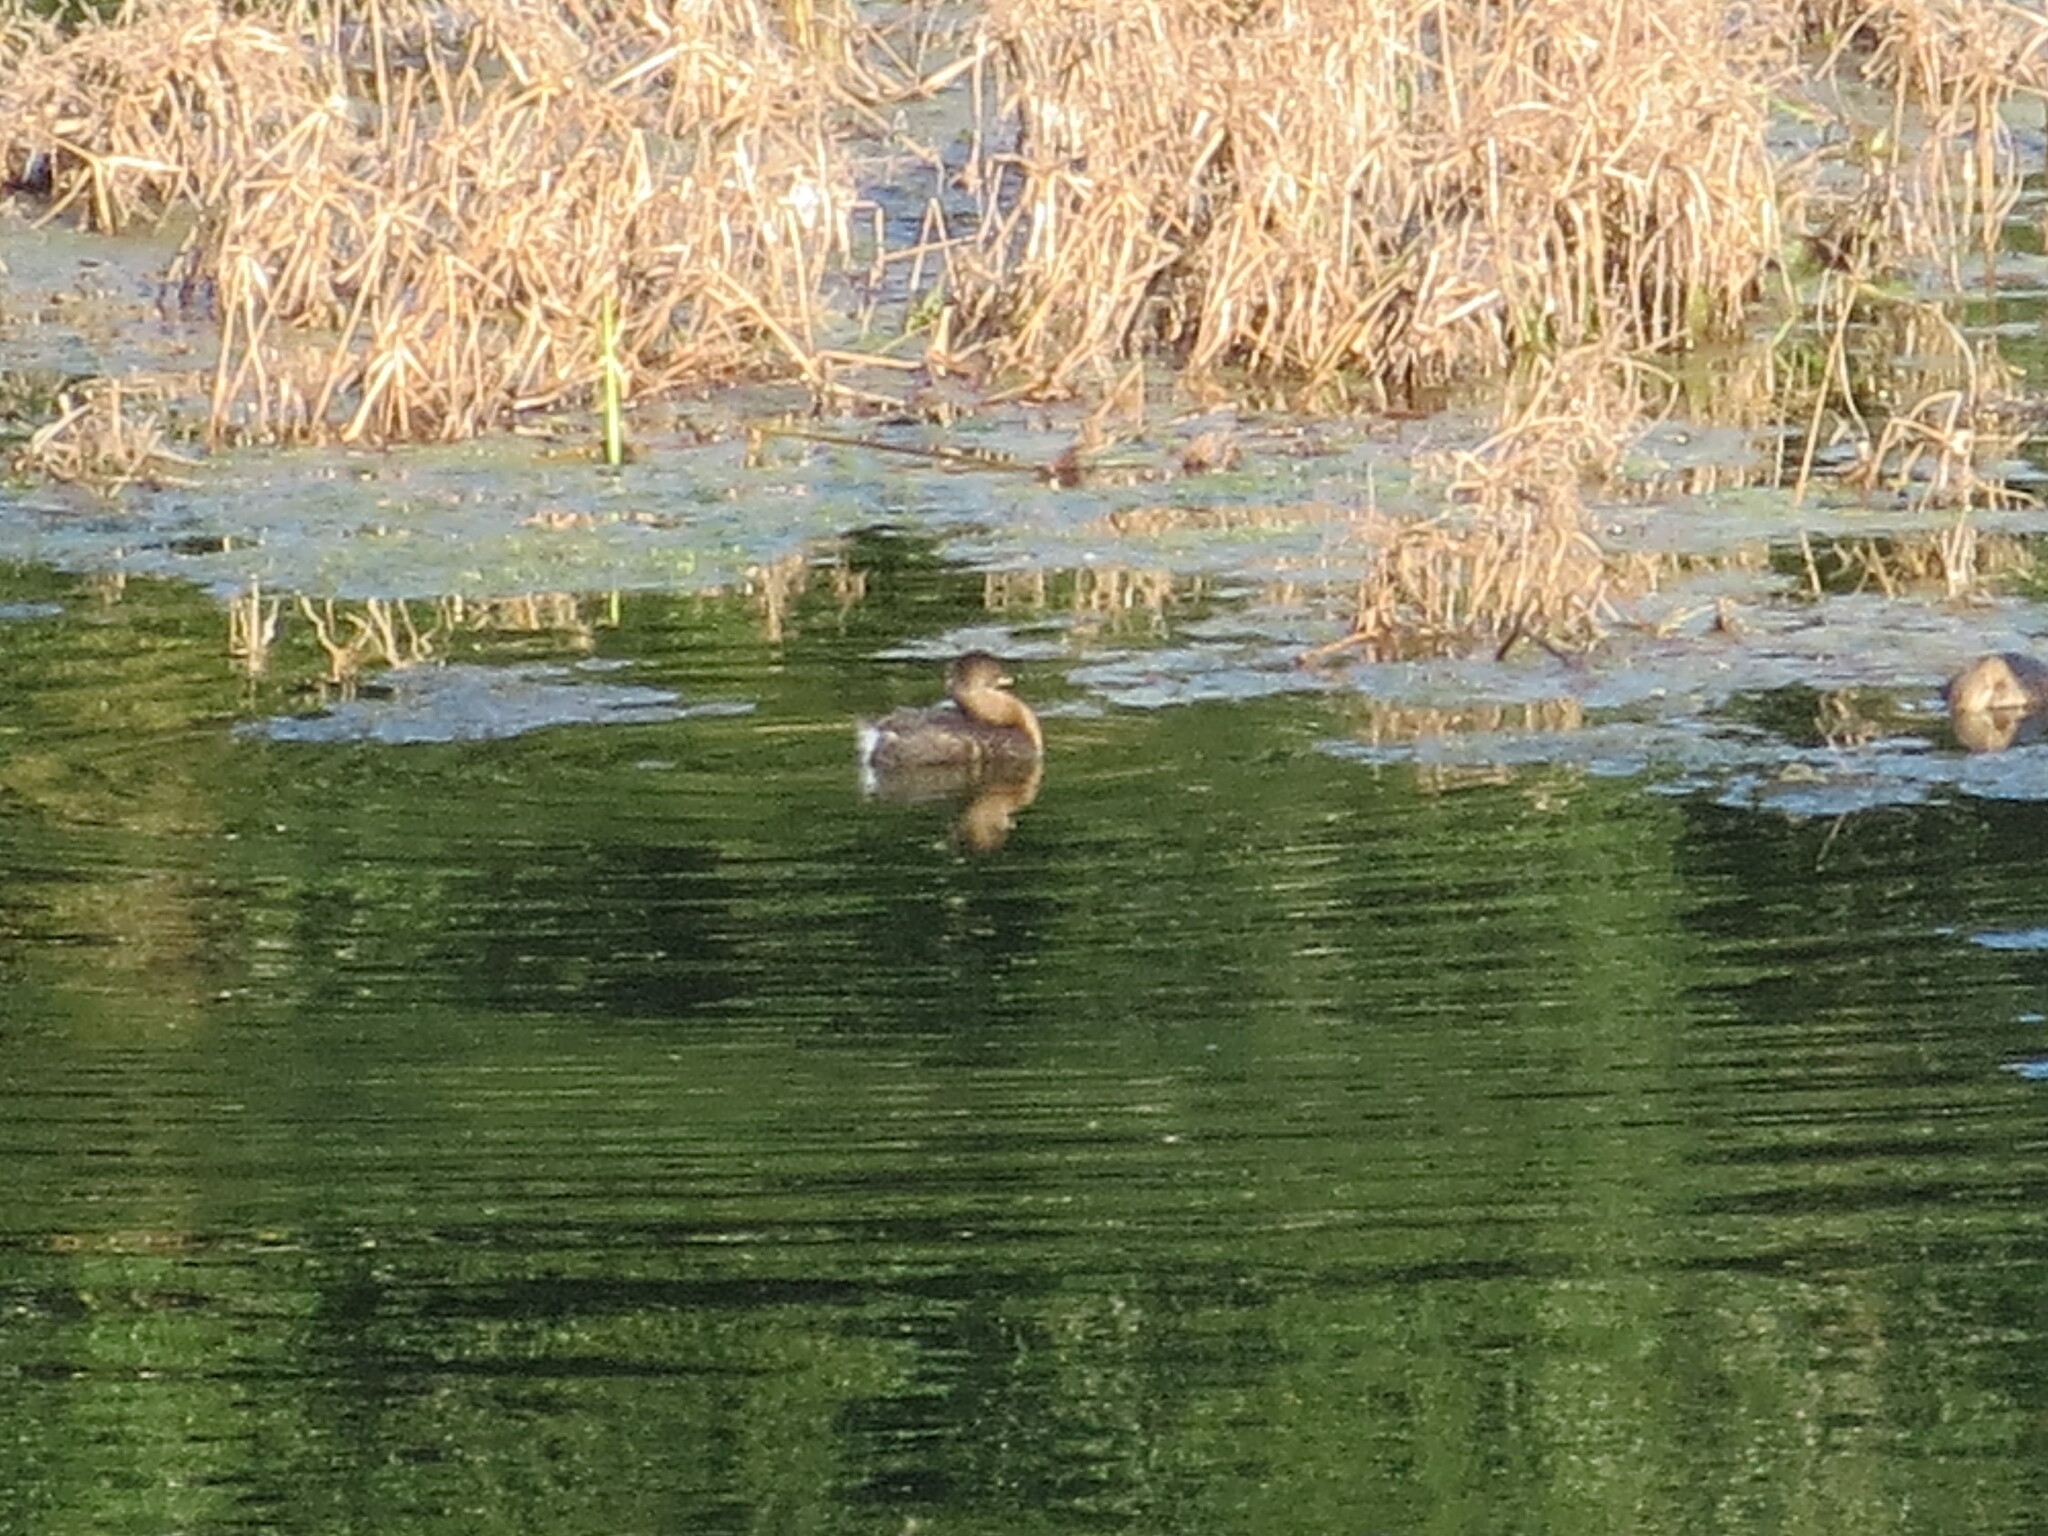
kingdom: Animalia
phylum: Chordata
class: Aves
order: Podicipediformes
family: Podicipedidae
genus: Podilymbus
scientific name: Podilymbus podiceps
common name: Pied-billed grebe
